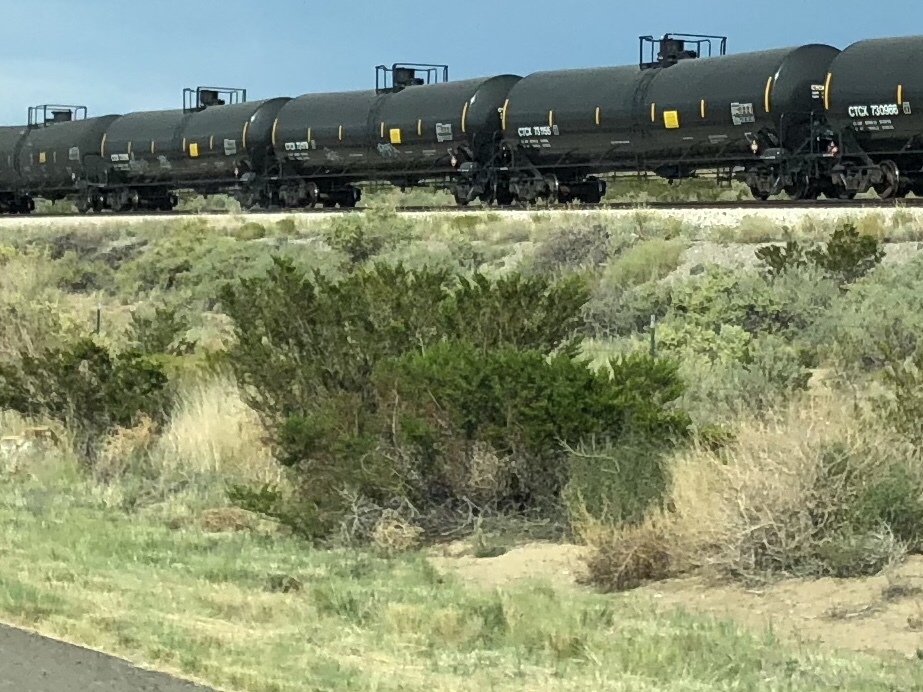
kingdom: Plantae
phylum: Tracheophyta
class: Magnoliopsida
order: Zygophyllales
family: Zygophyllaceae
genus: Larrea
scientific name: Larrea tridentata
